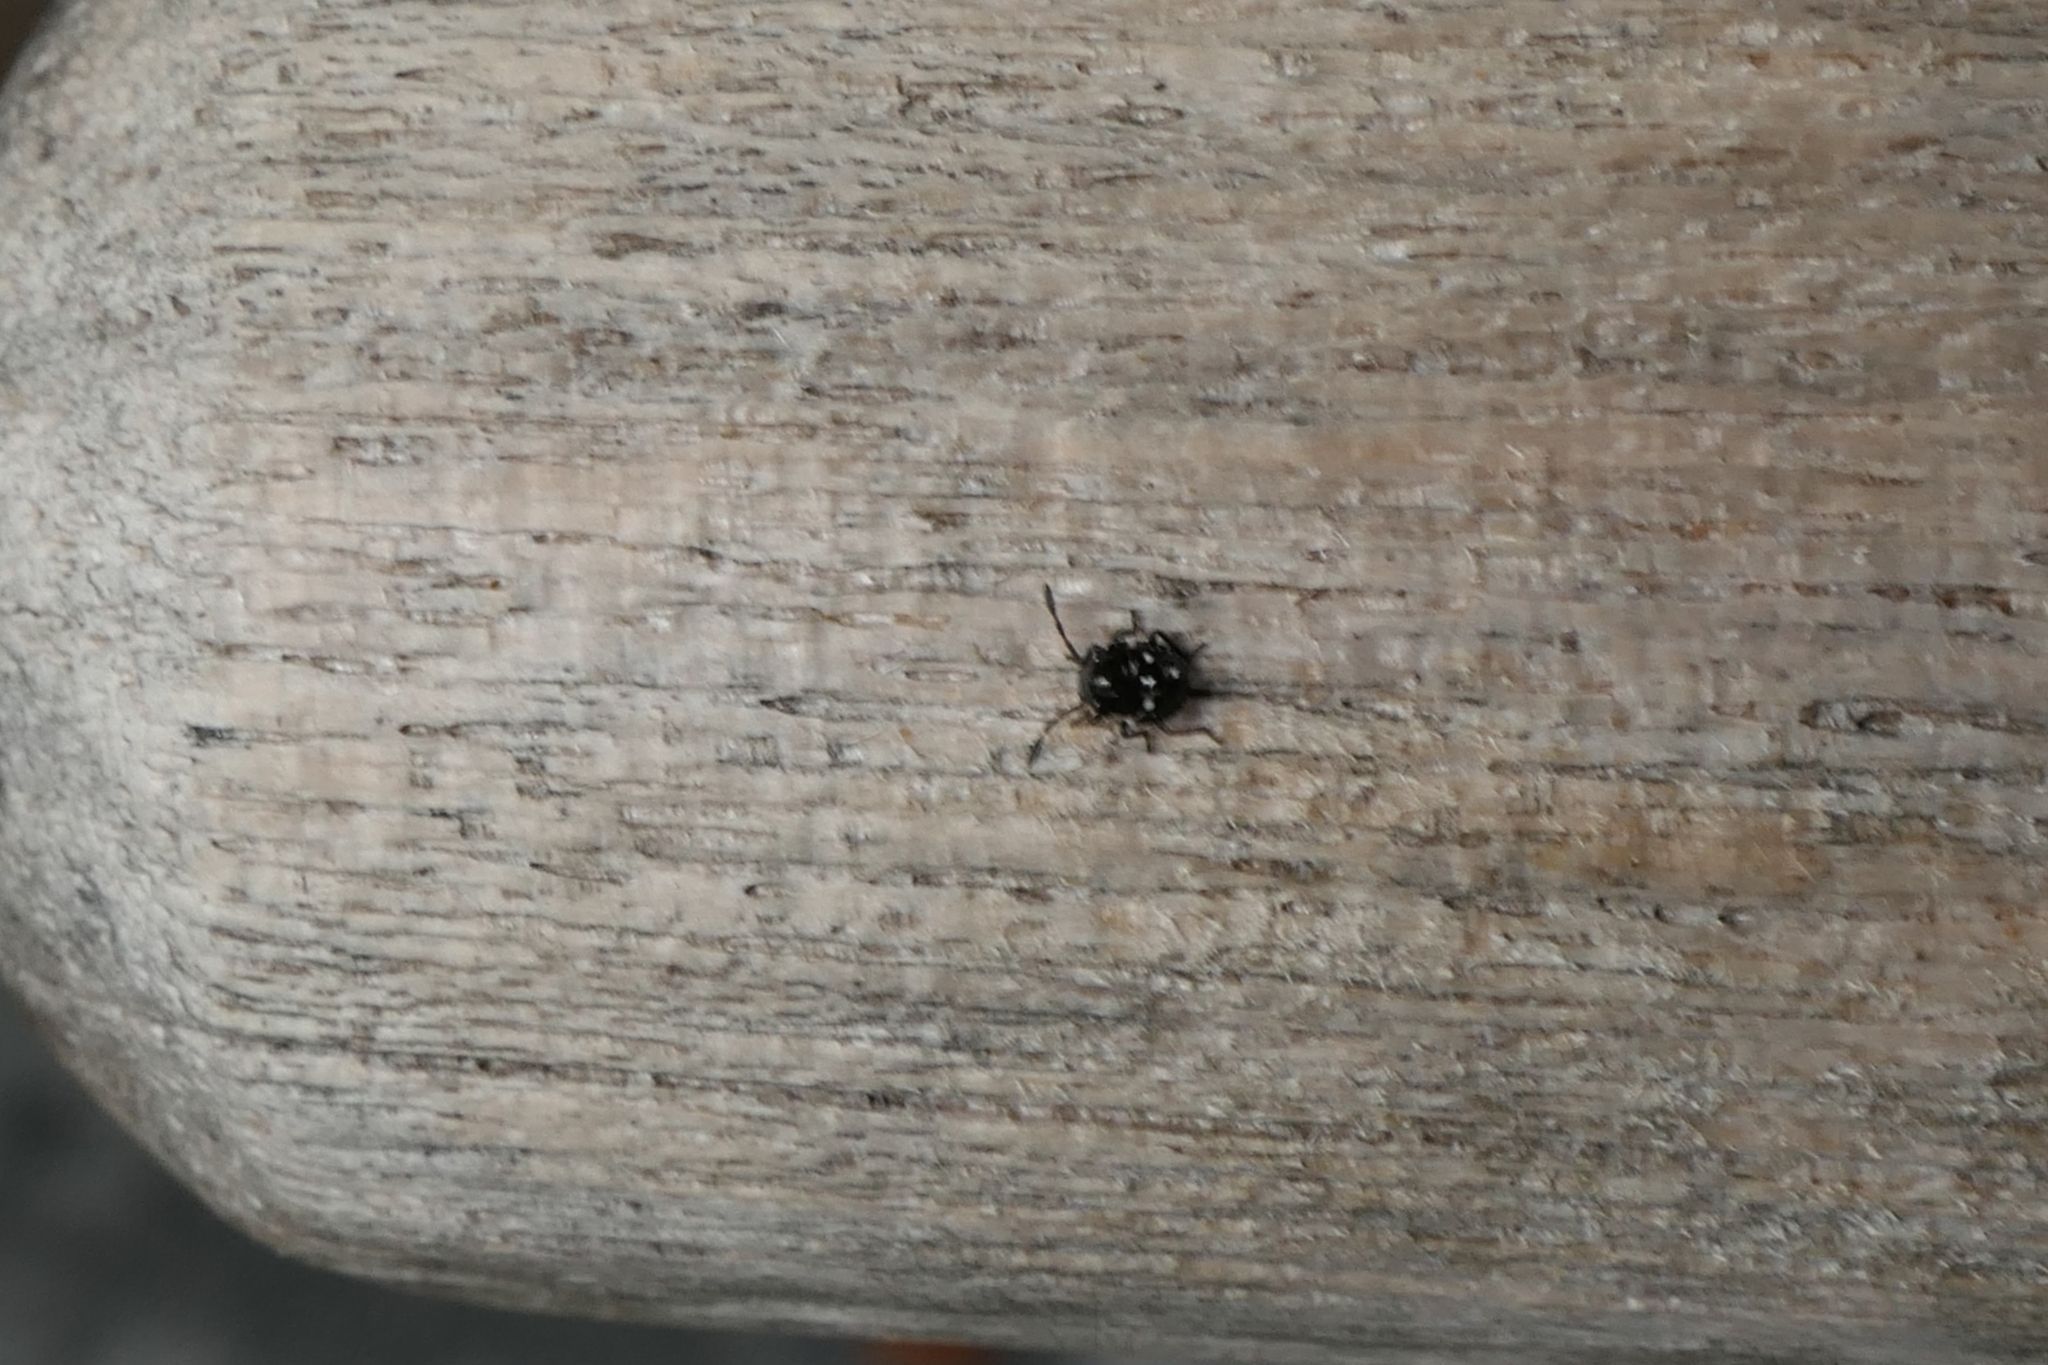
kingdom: Animalia
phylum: Arthropoda
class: Insecta
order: Hemiptera
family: Pentatomidae
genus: Monteithiella
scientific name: Monteithiella
